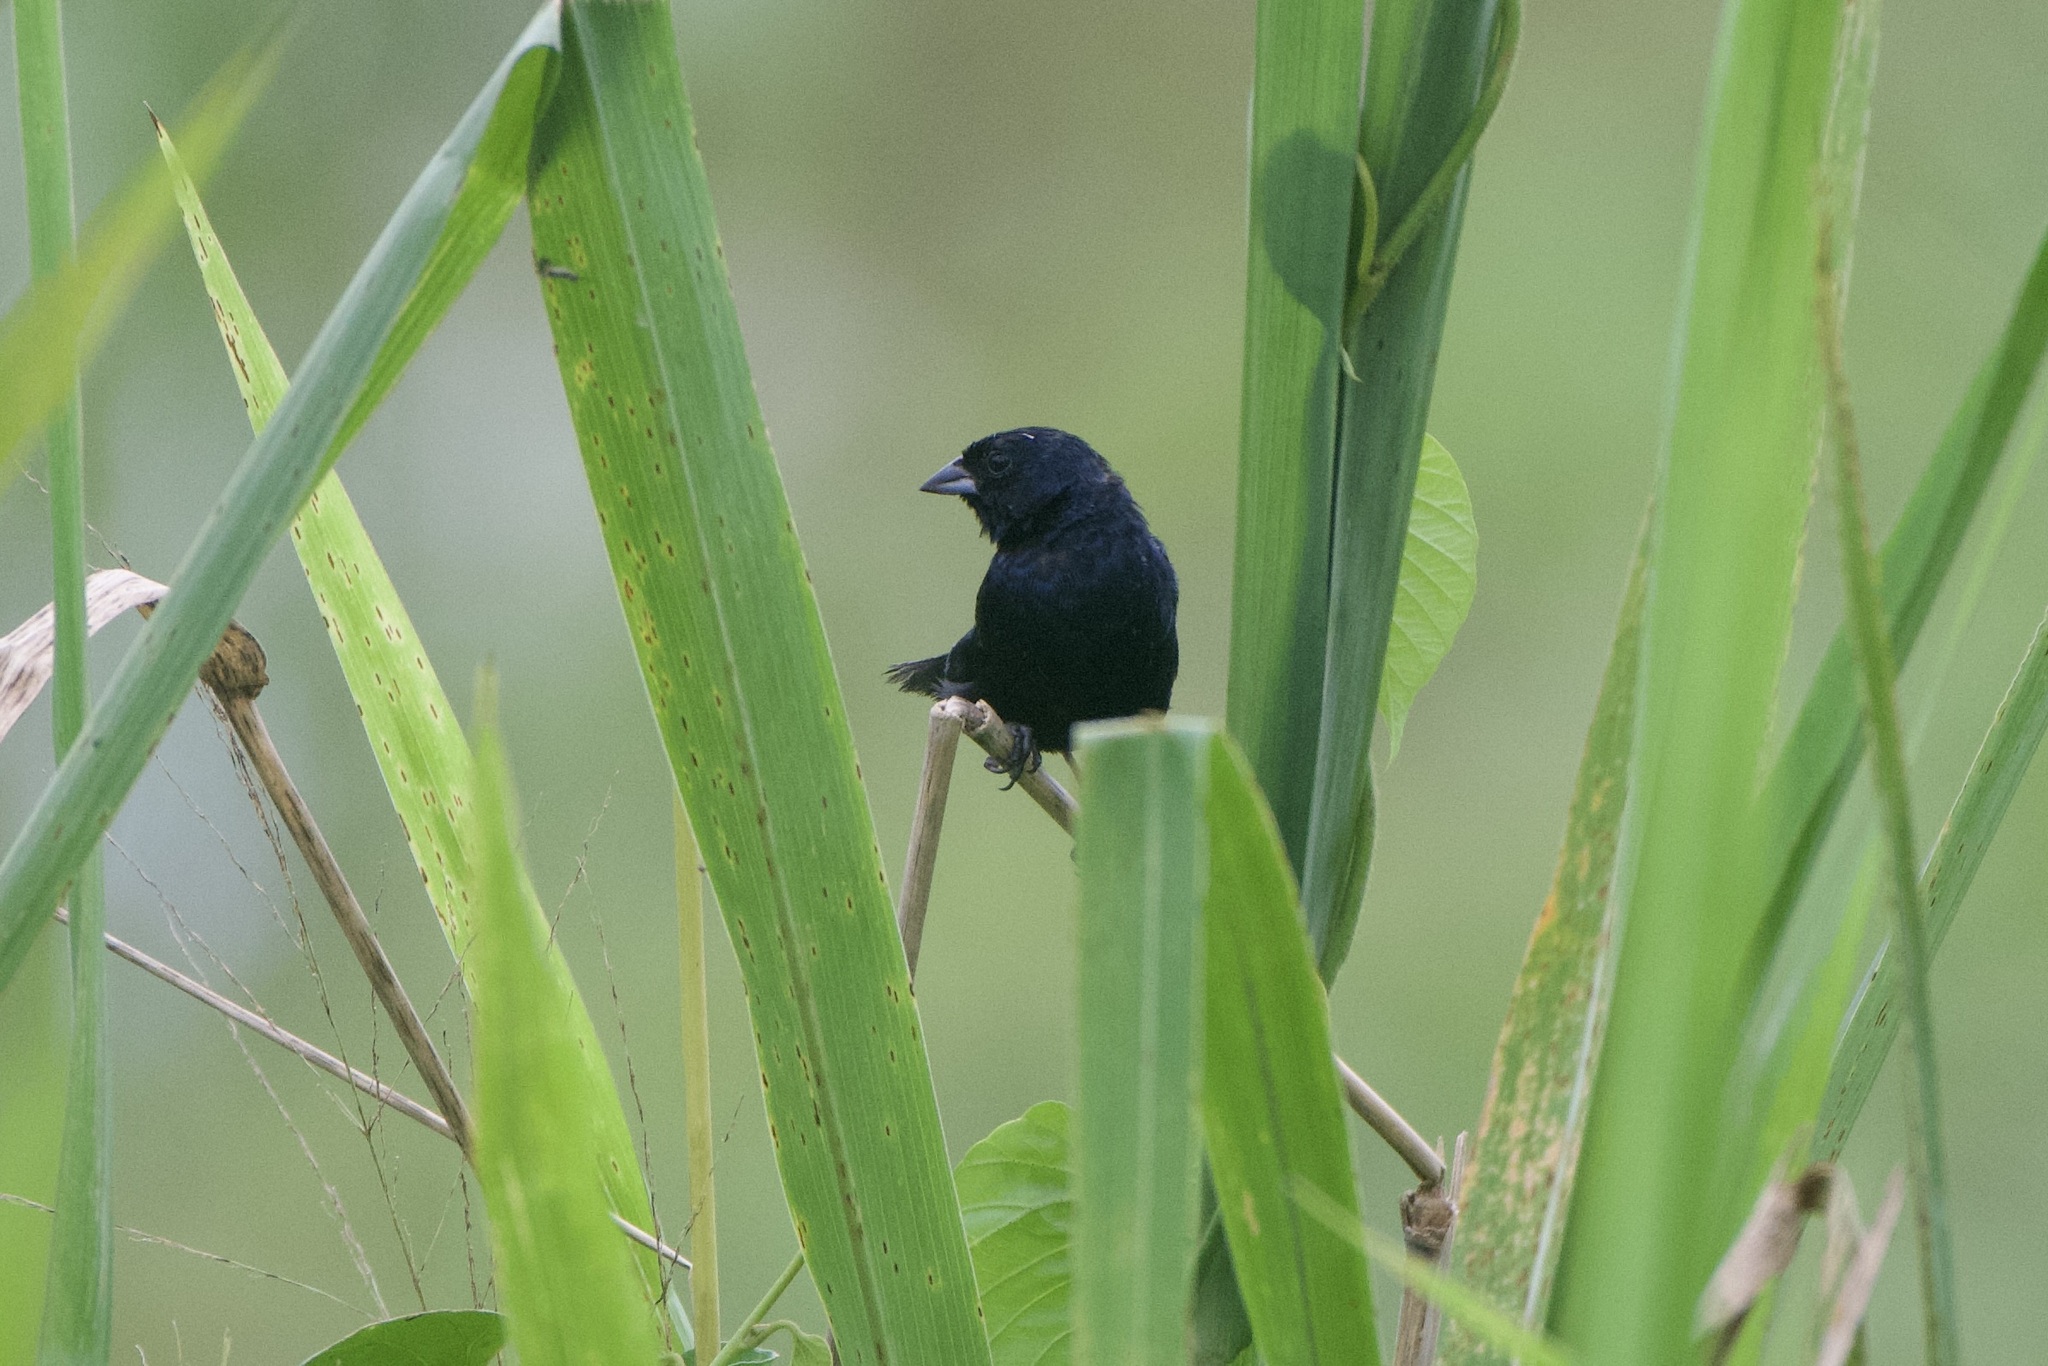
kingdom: Animalia
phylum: Chordata
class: Aves
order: Passeriformes
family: Thraupidae
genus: Volatinia
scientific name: Volatinia jacarina
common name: Blue-black grassquit
